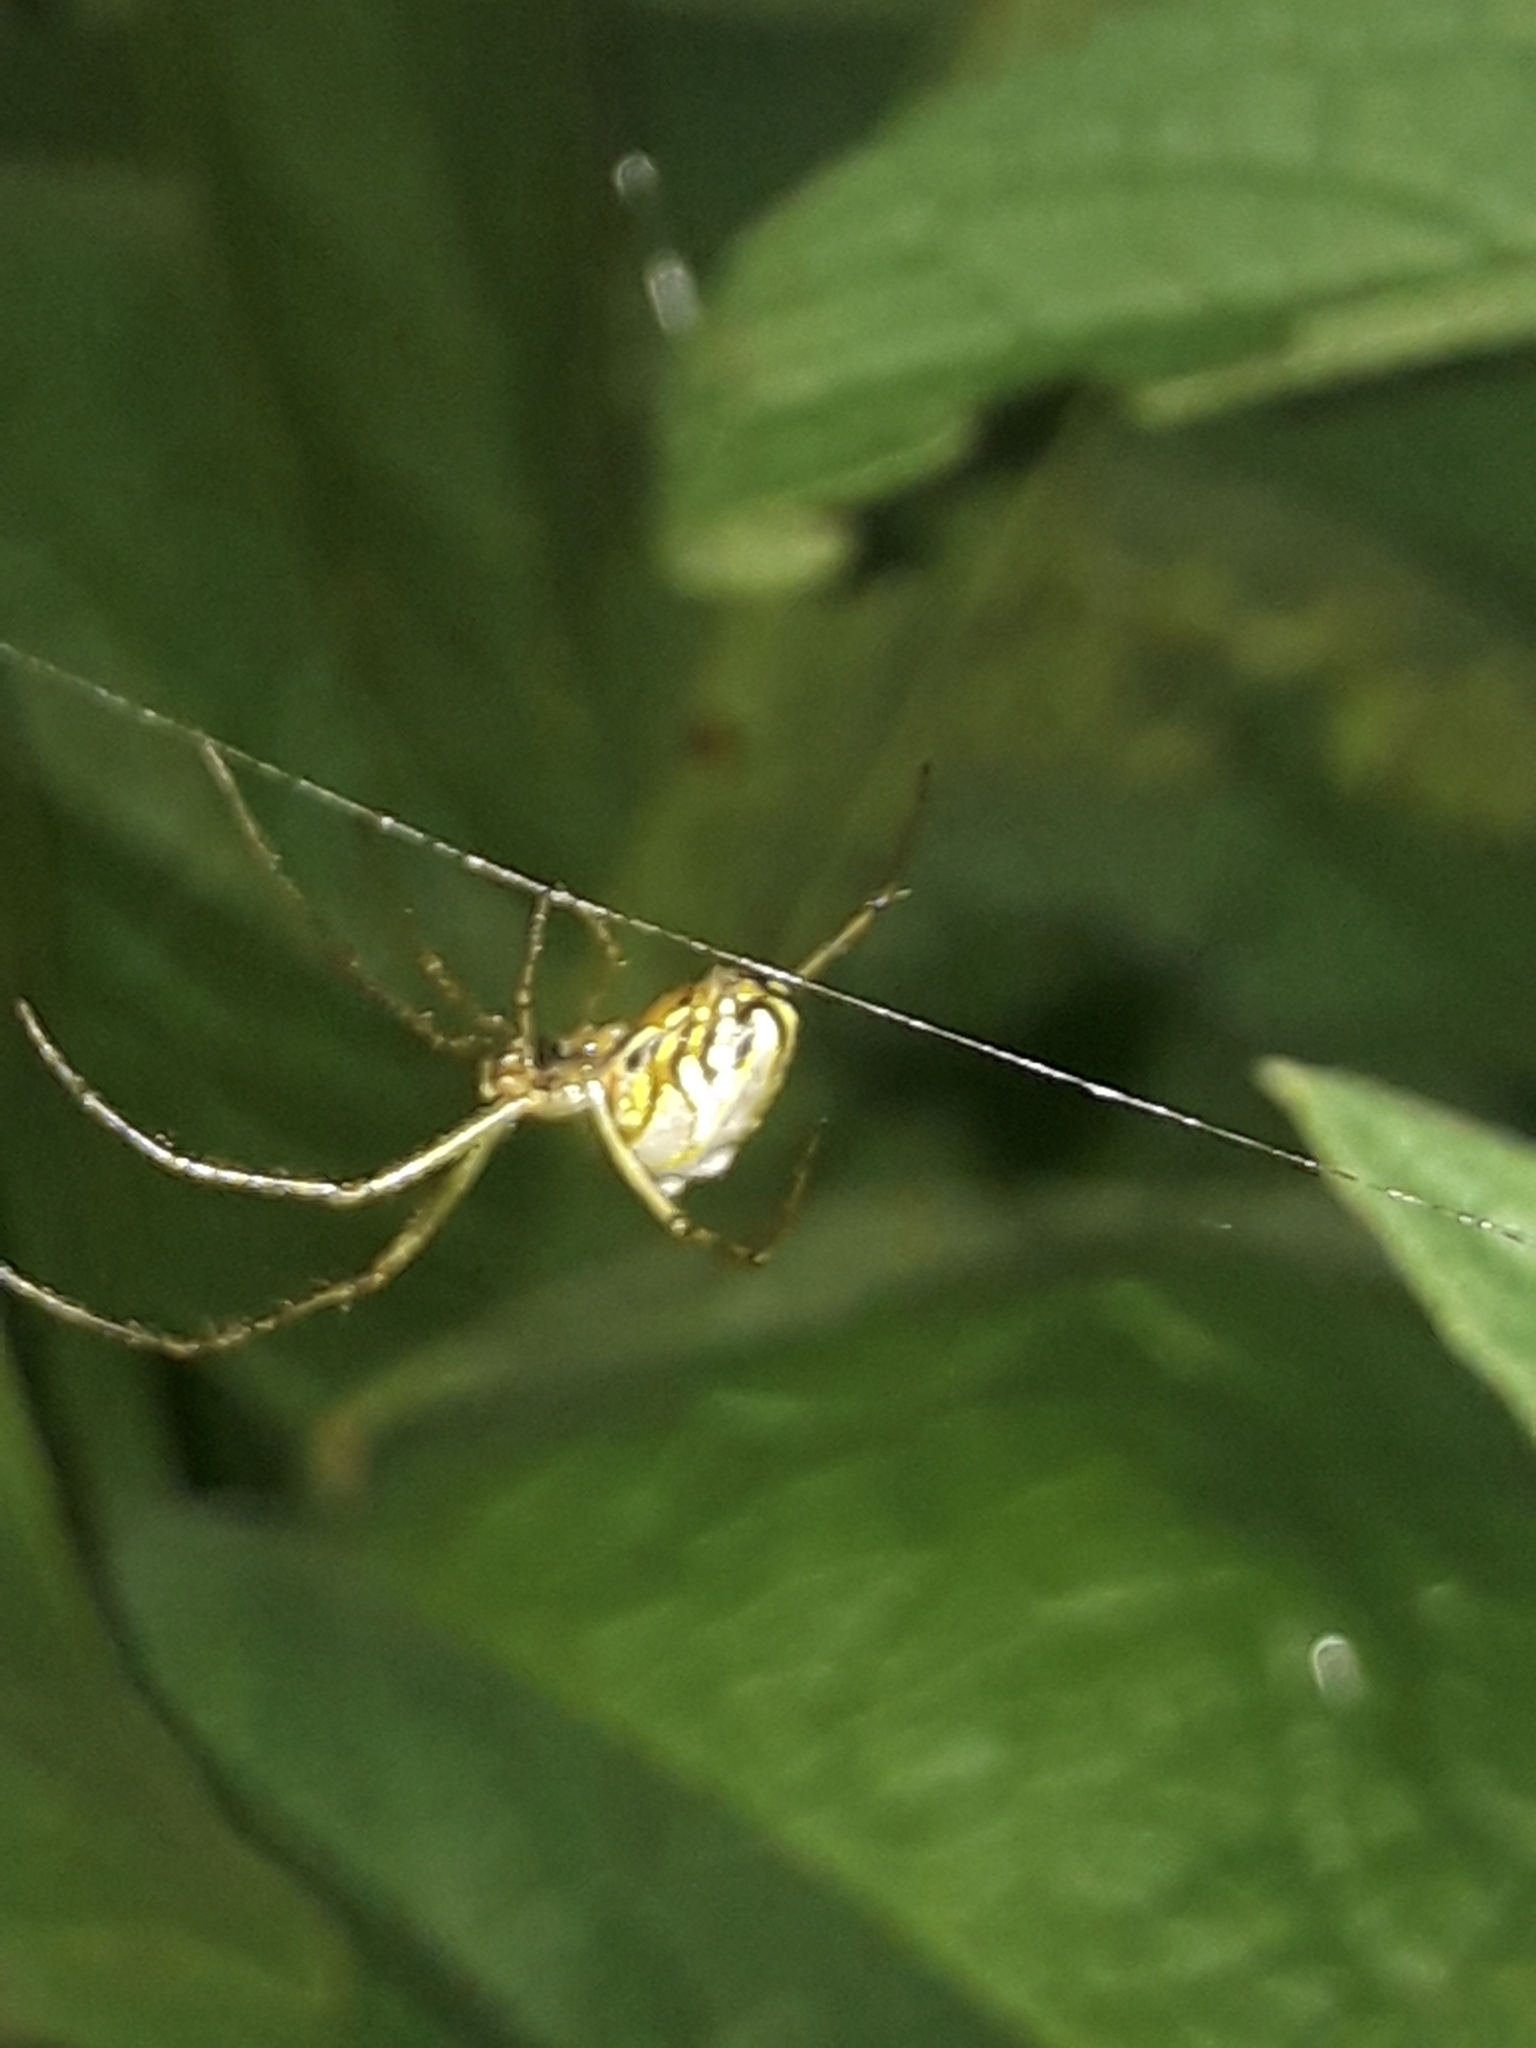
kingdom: Animalia
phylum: Arthropoda
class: Arachnida
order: Araneae
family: Tetragnathidae
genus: Leucauge
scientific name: Leucauge dromedaria
